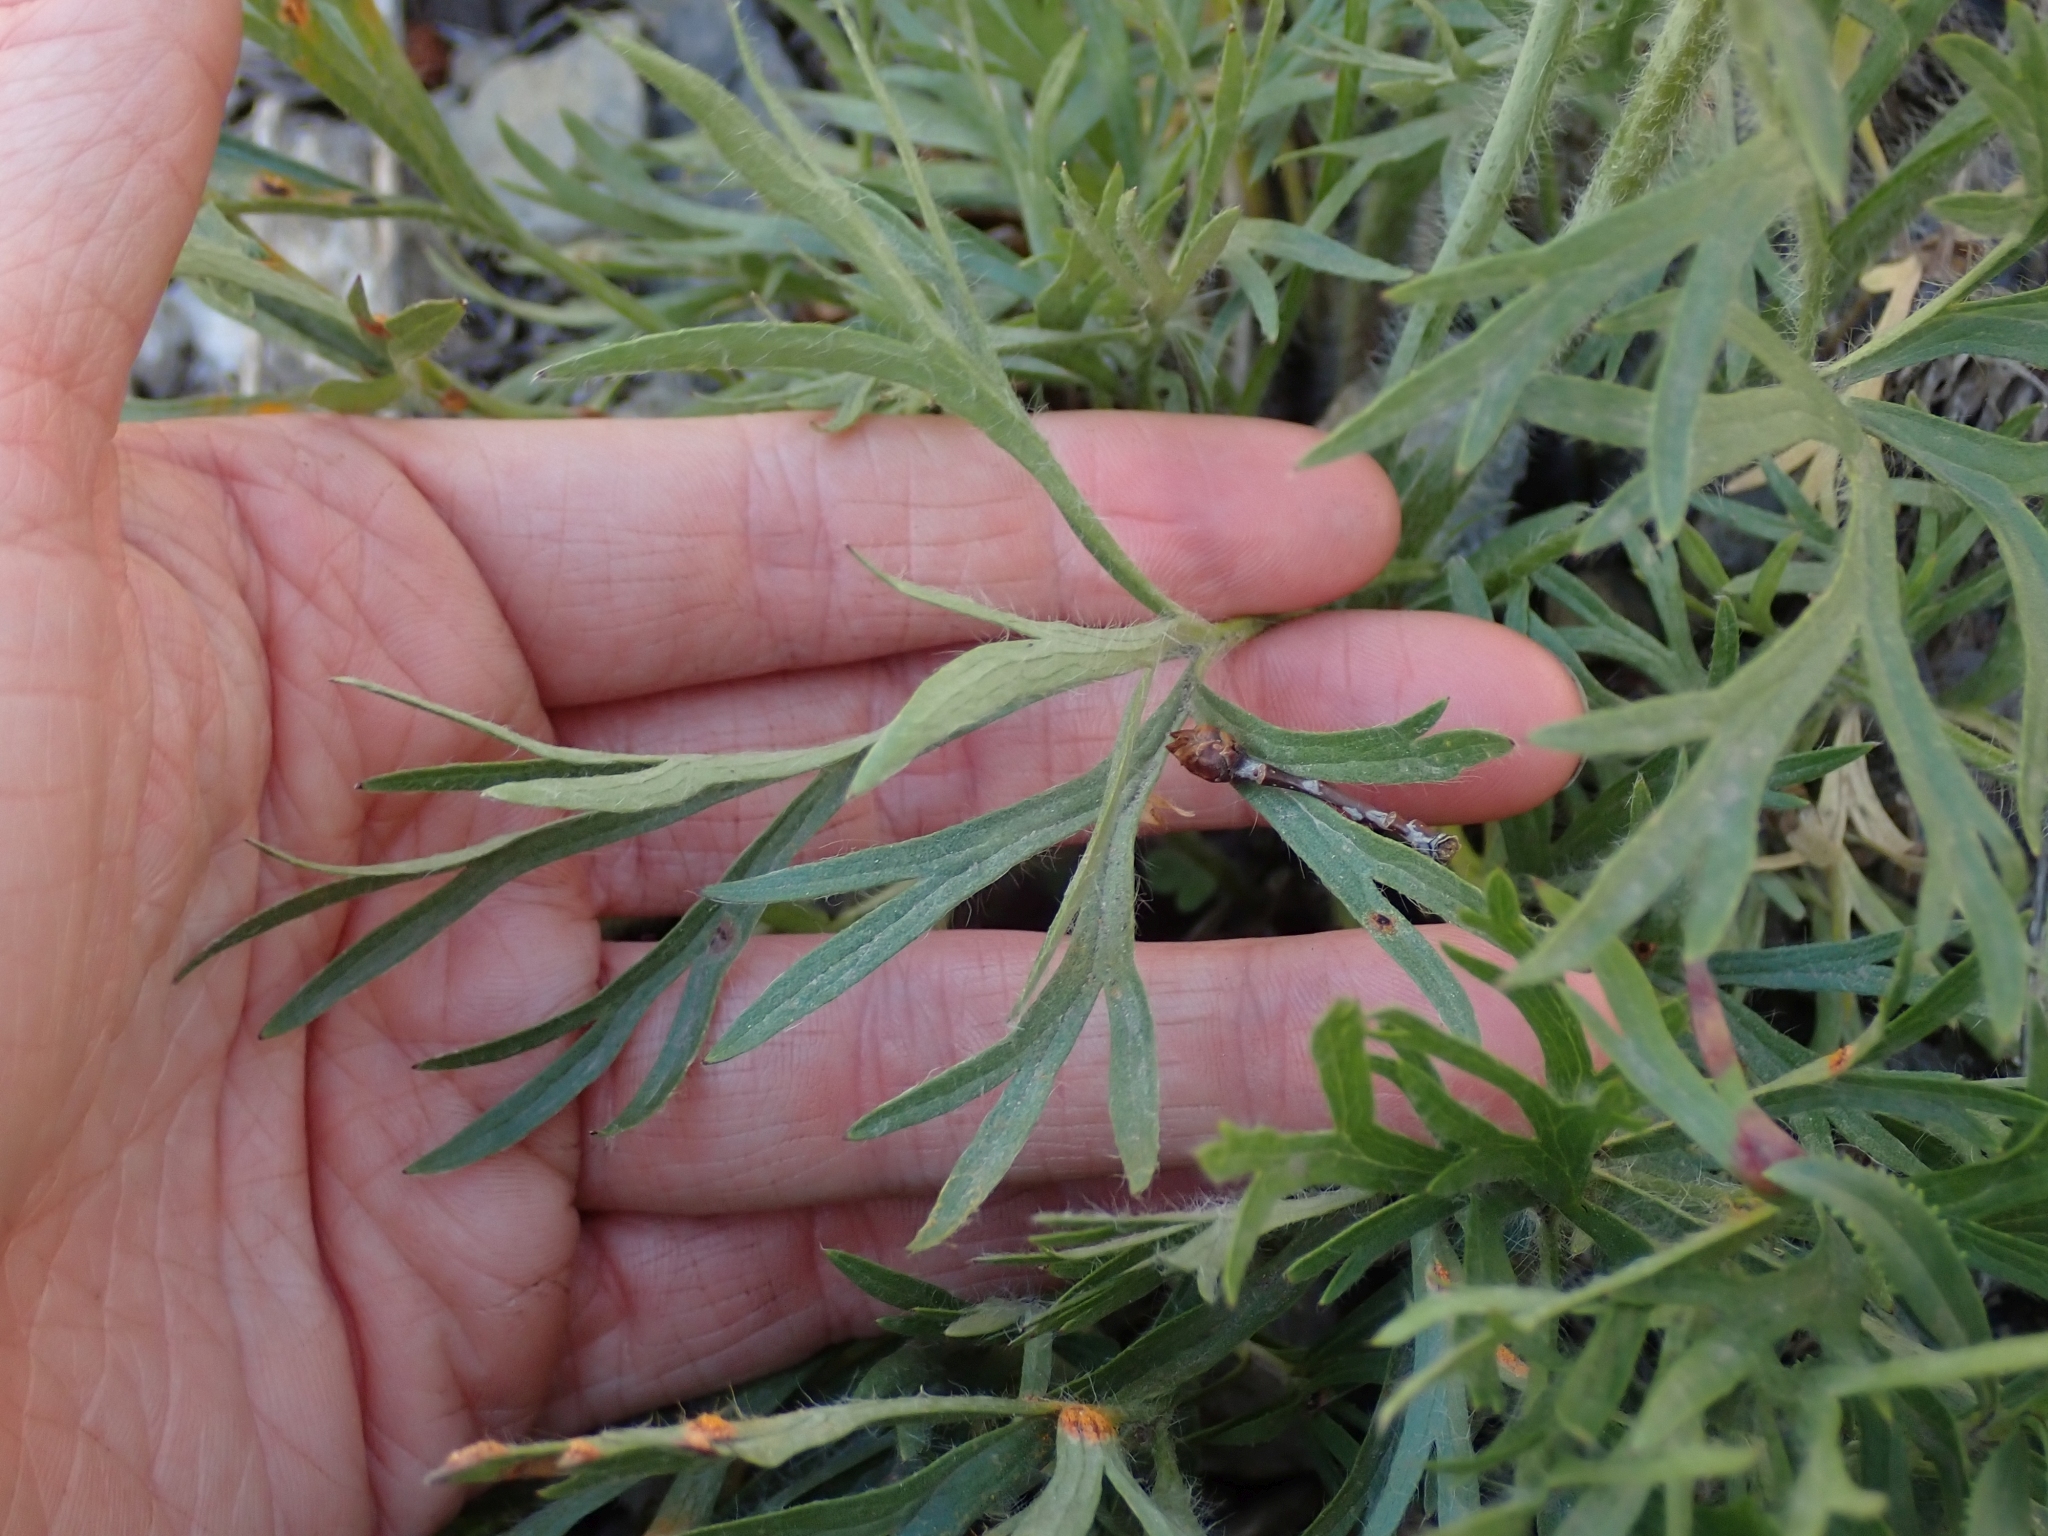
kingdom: Plantae
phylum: Tracheophyta
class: Magnoliopsida
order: Ranunculales
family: Ranunculaceae
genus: Anemone
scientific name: Anemone multifida
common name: Bird's-foot anemone
